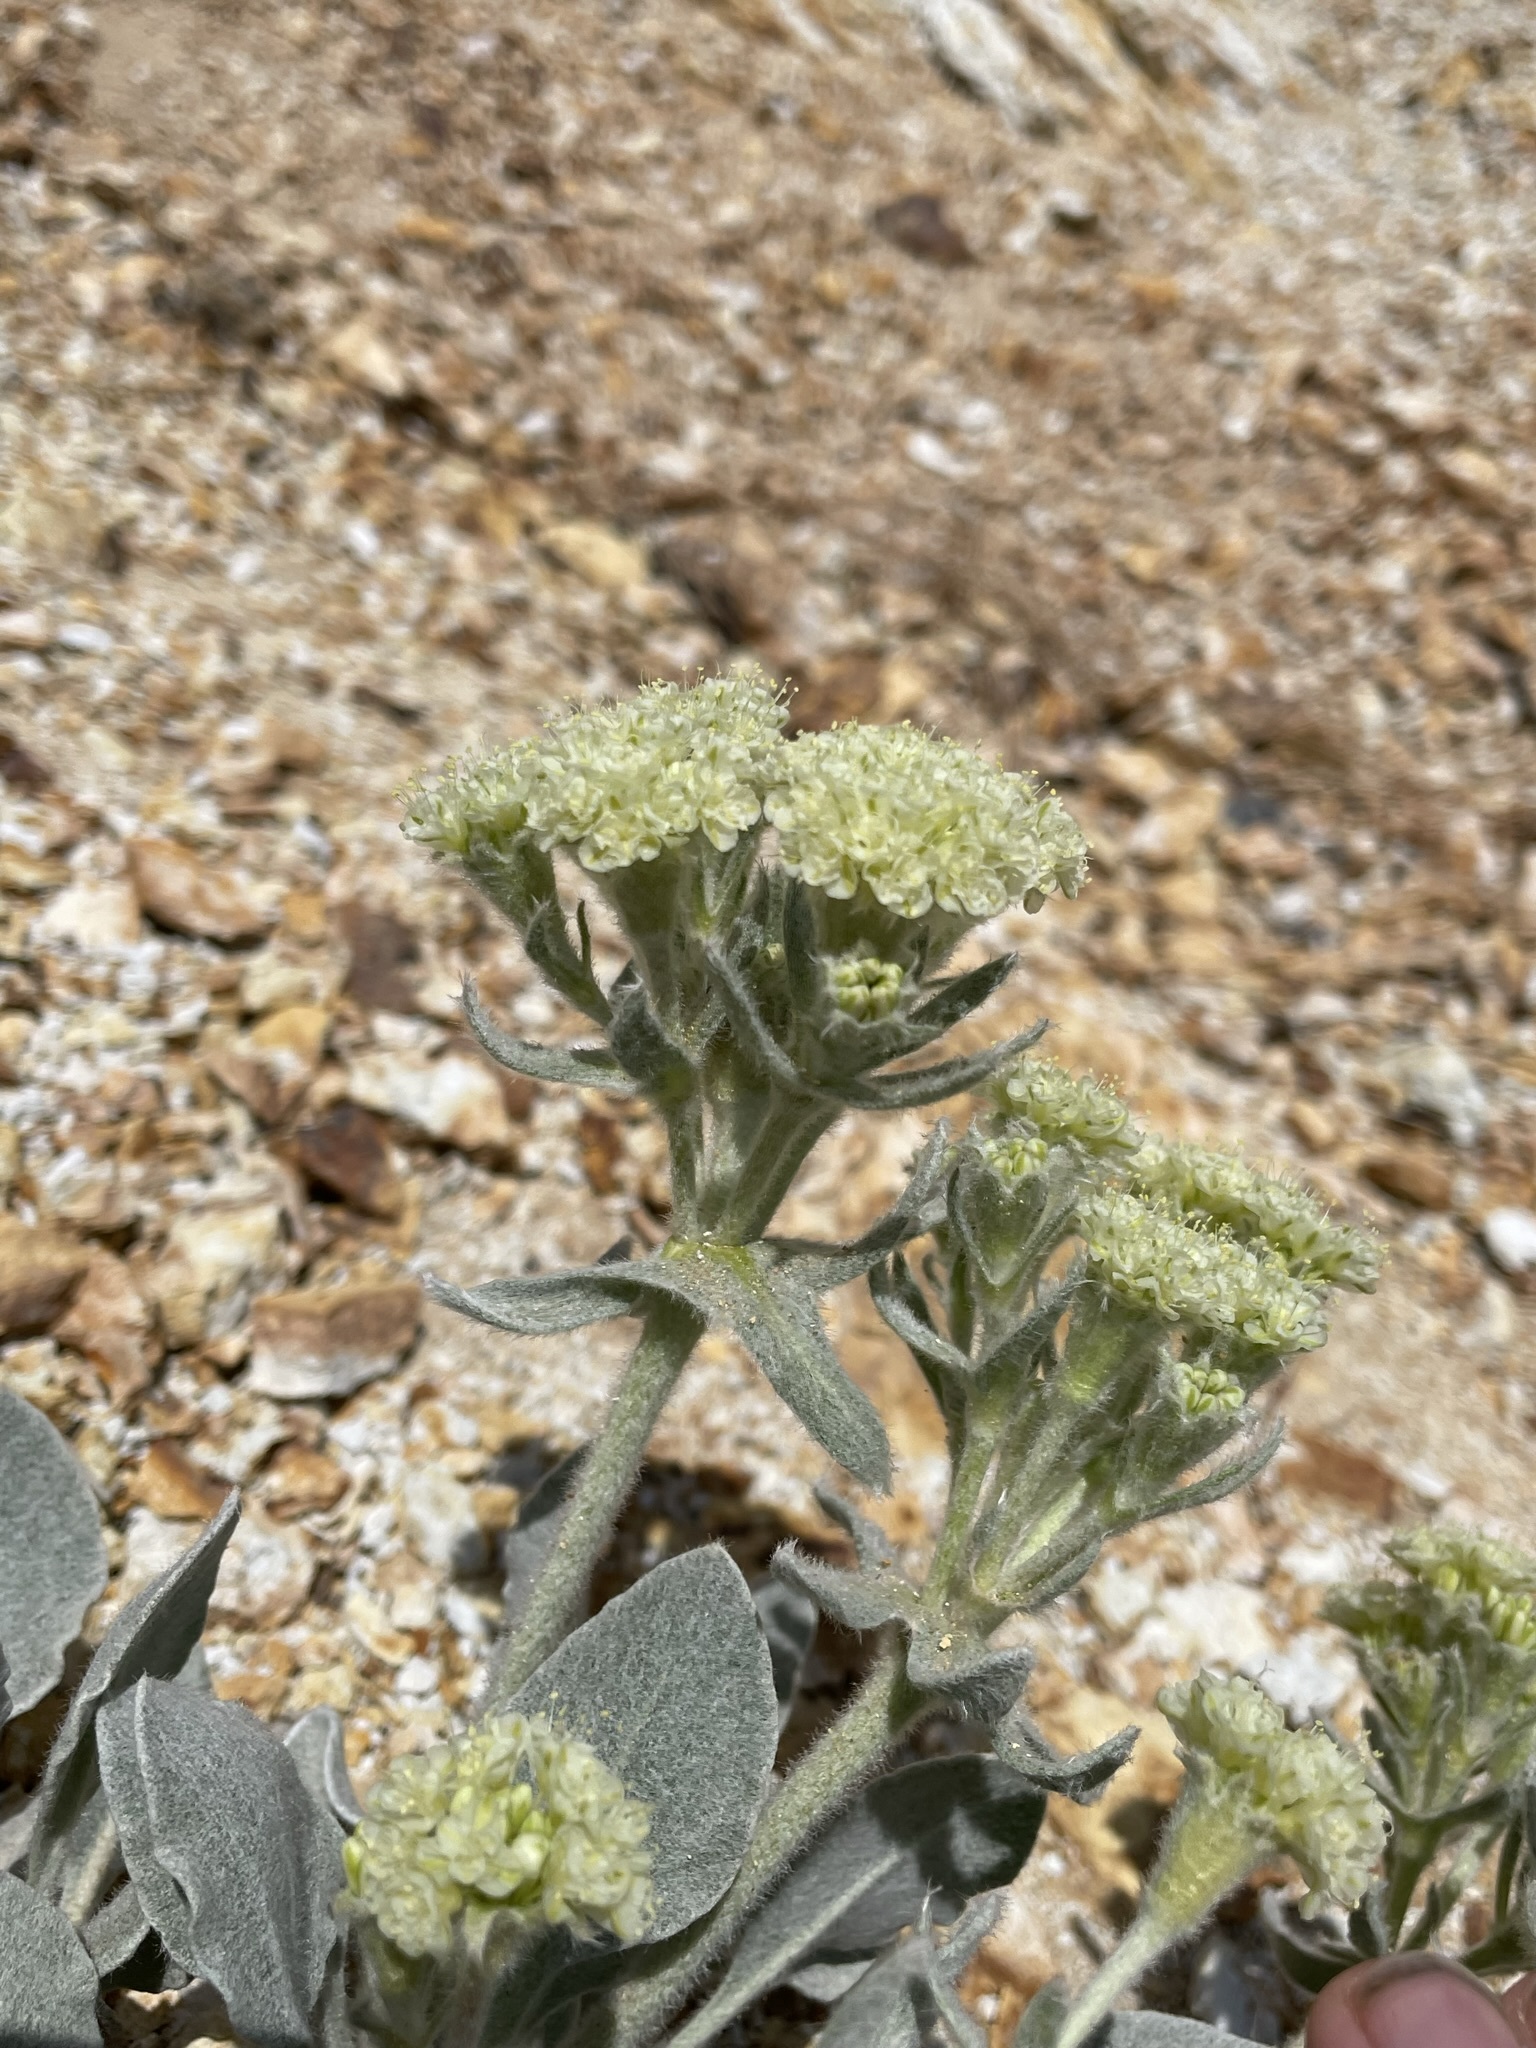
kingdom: Plantae
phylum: Tracheophyta
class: Magnoliopsida
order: Caryophyllales
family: Polygonaceae
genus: Eriogonum
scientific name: Eriogonum robustum
